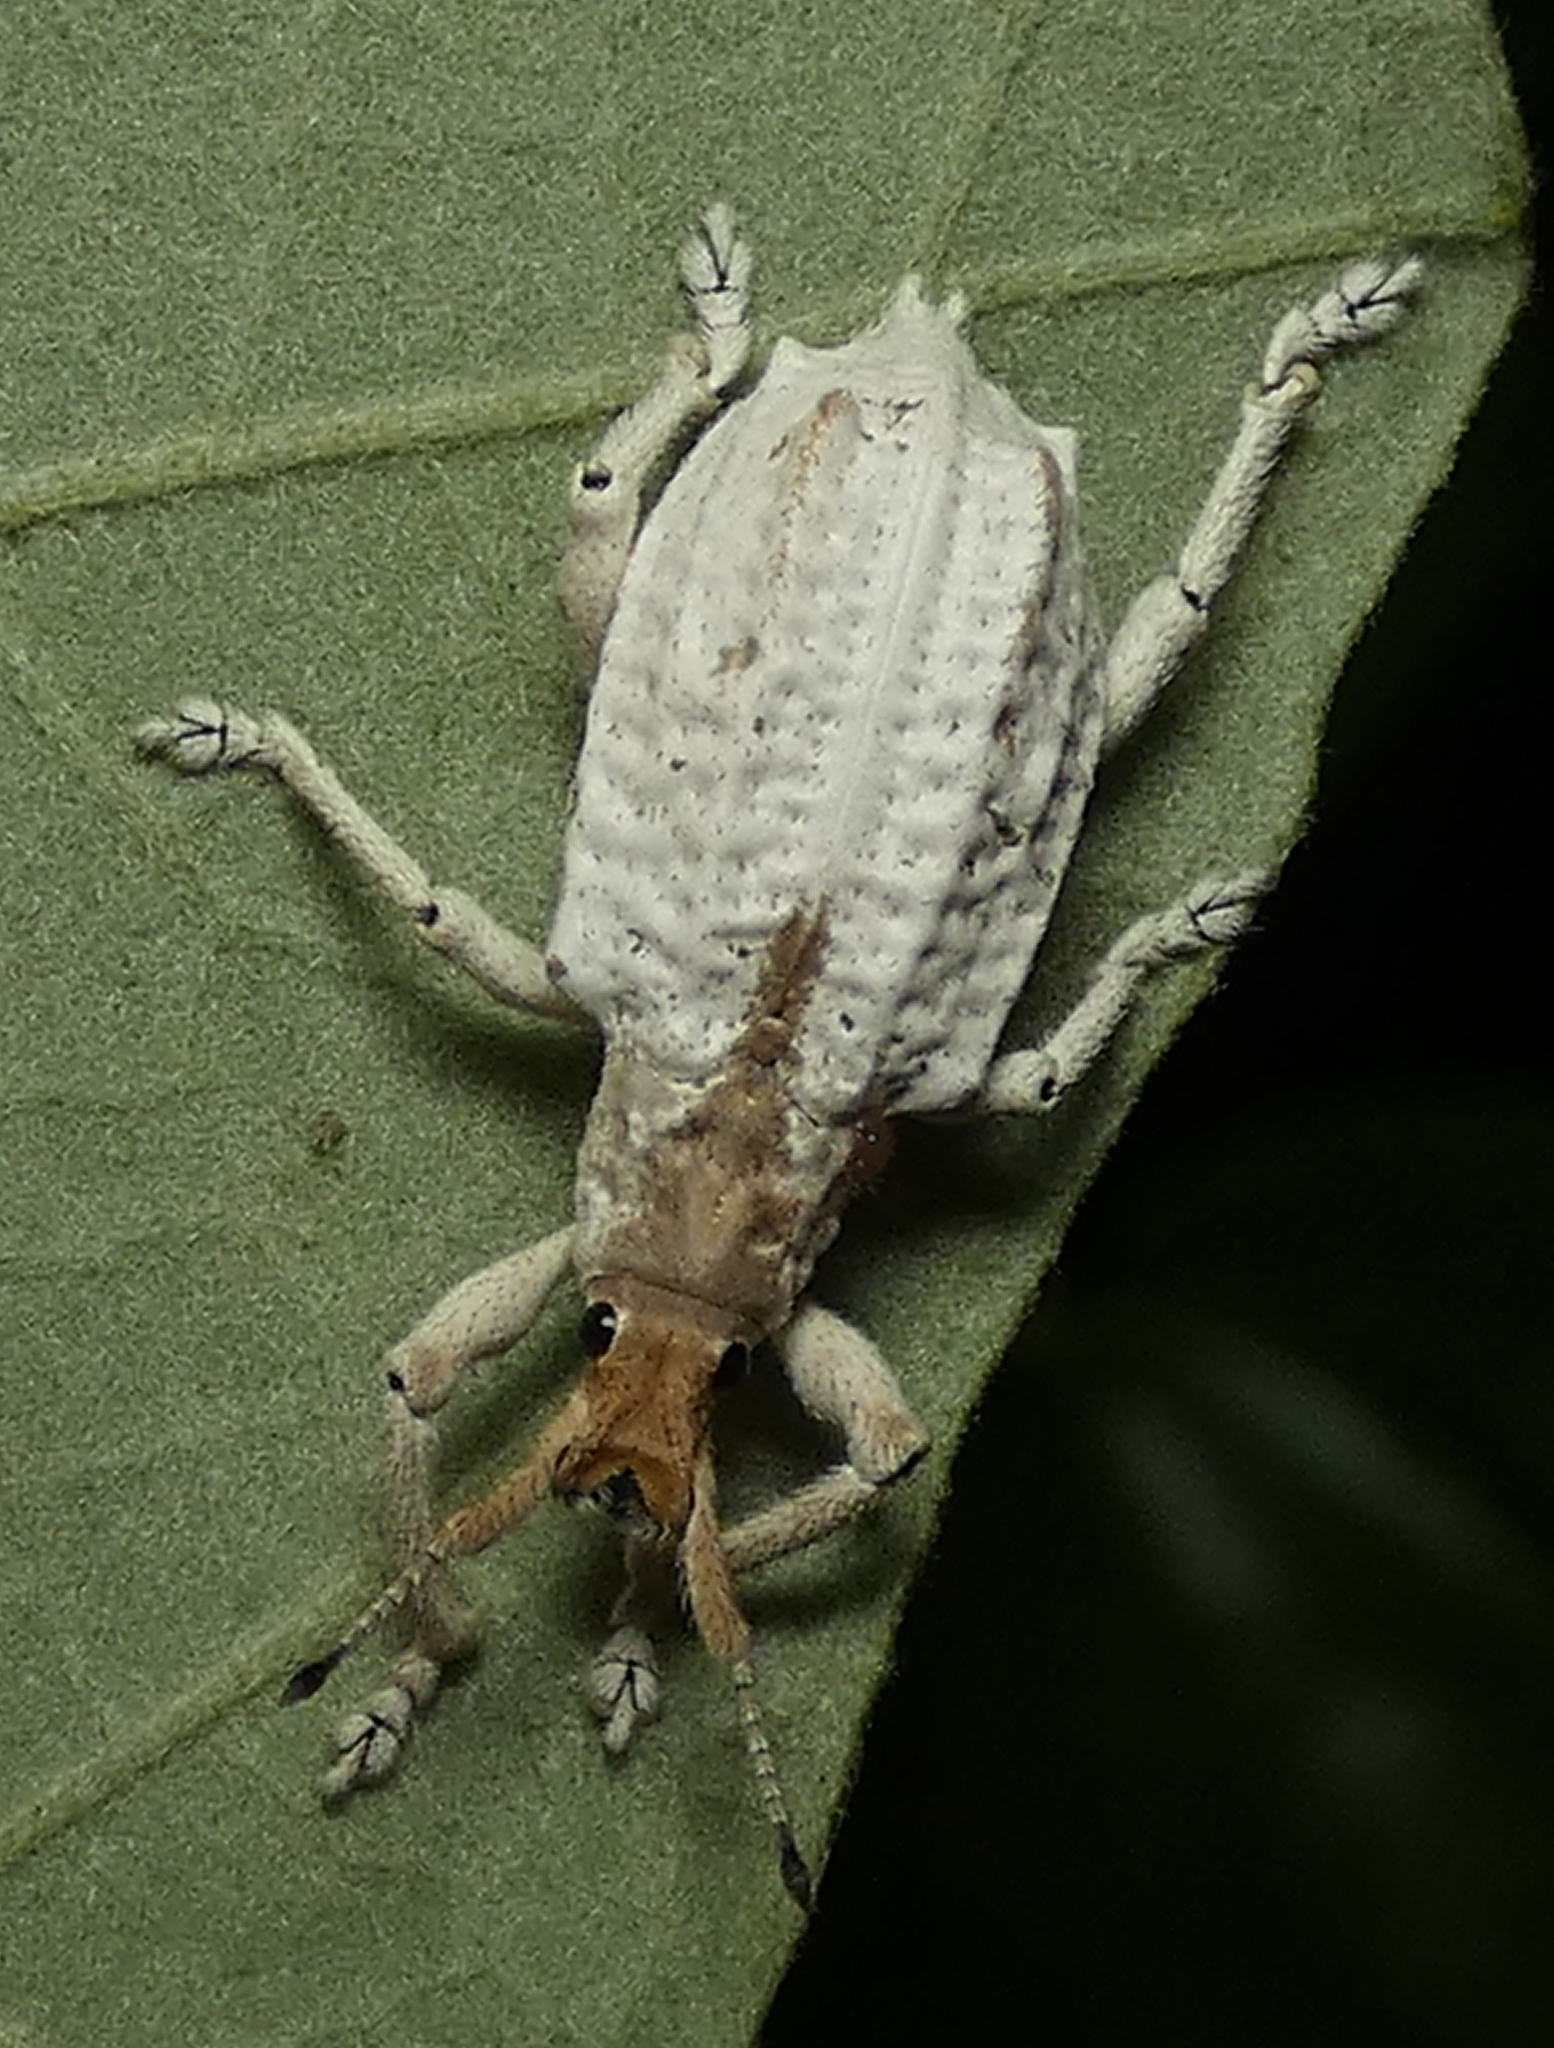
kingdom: Animalia
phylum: Arthropoda
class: Insecta
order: Coleoptera
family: Curculionidae
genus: Compsus
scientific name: Compsus niveus
